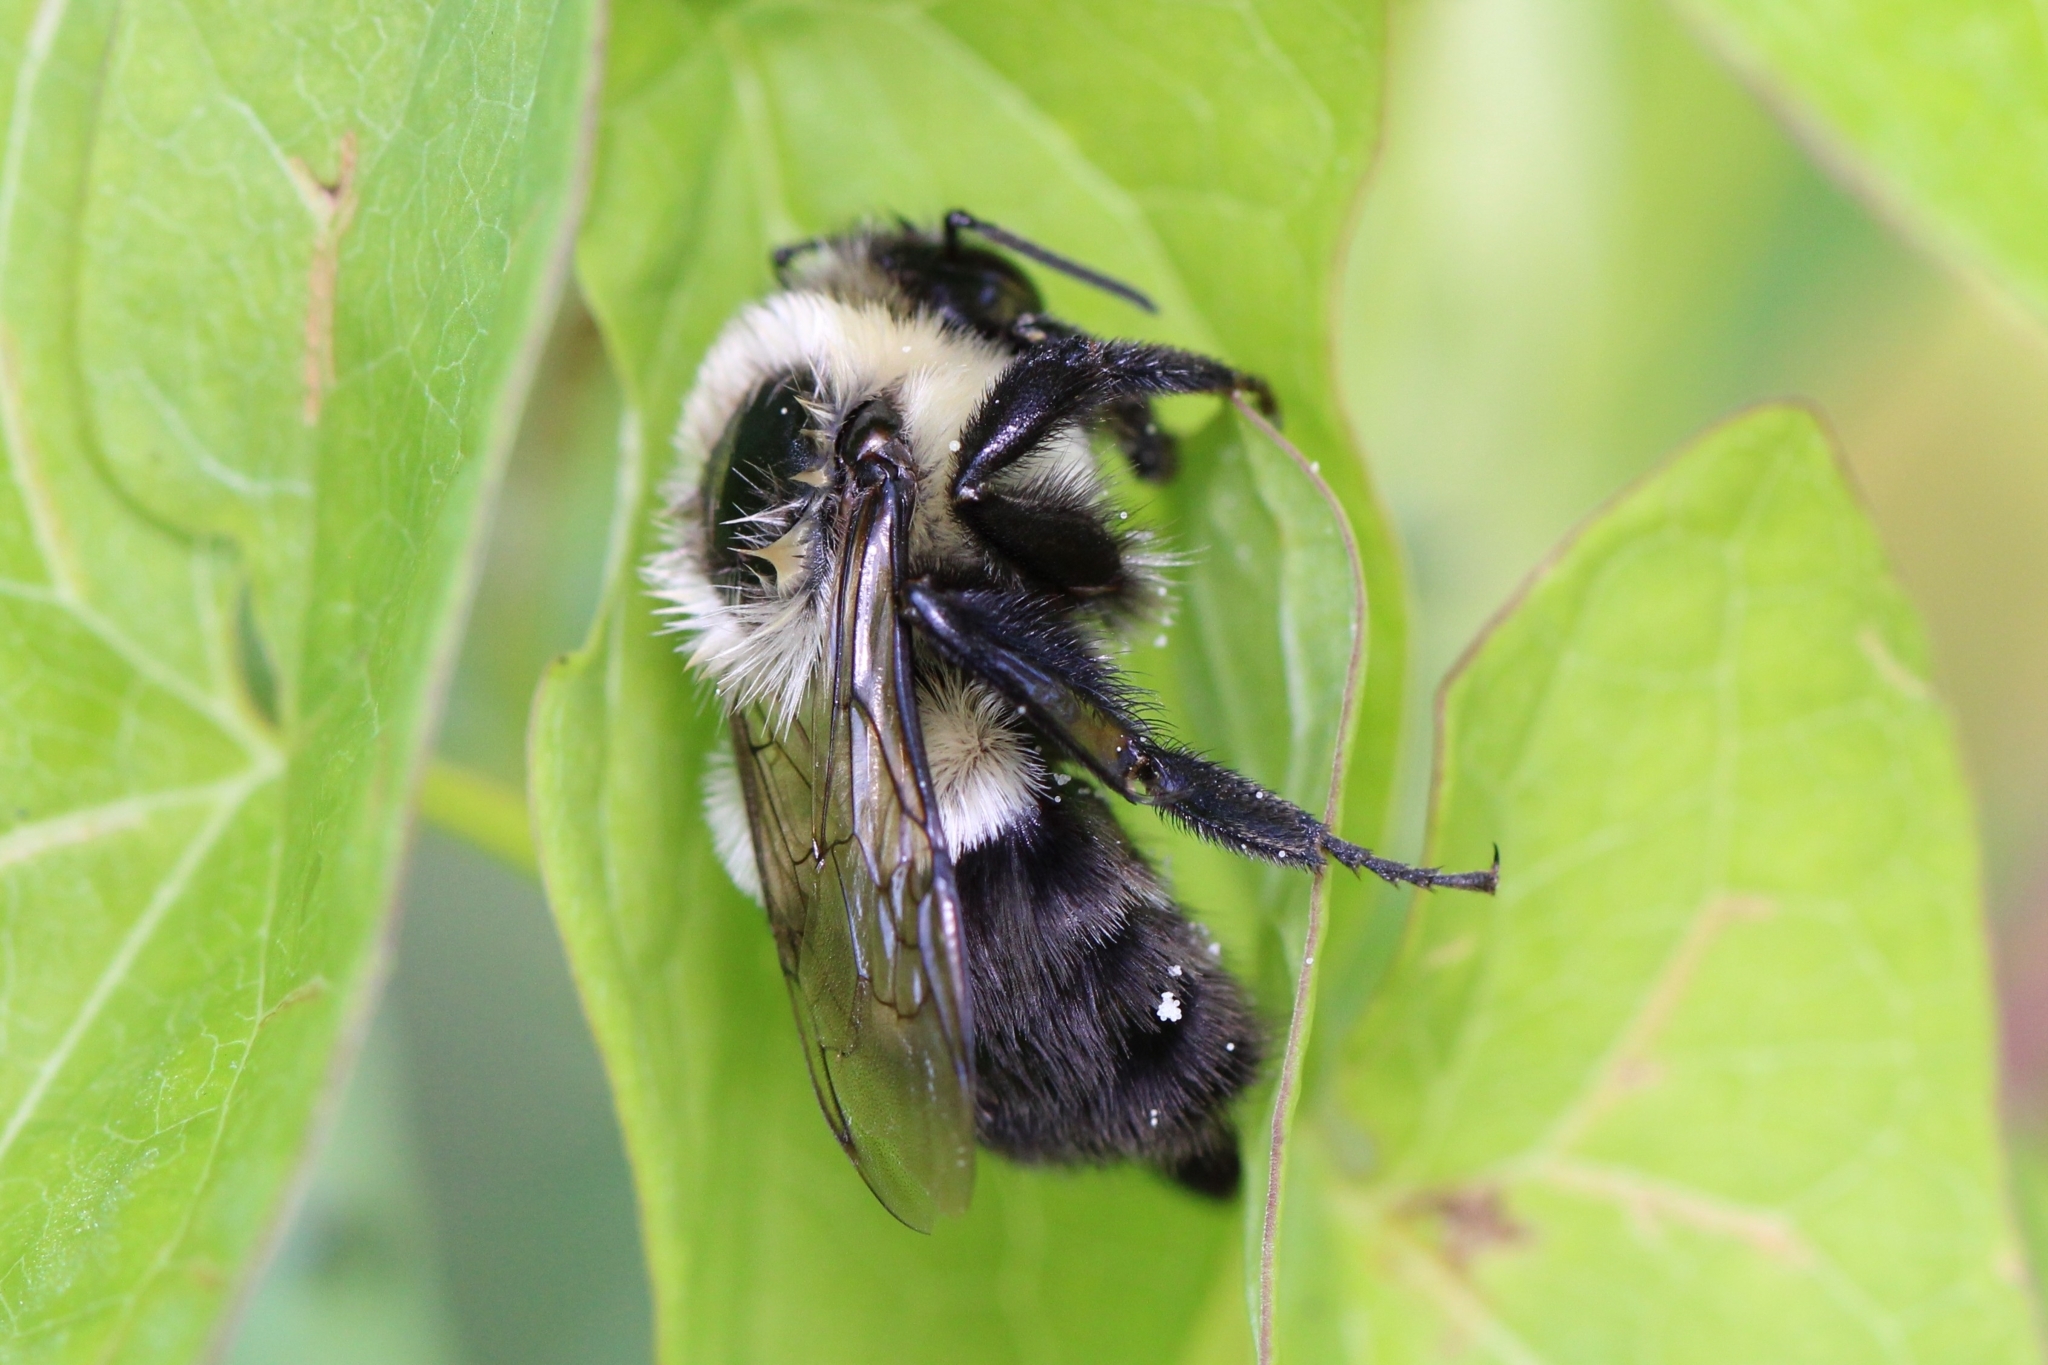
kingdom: Animalia
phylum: Arthropoda
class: Insecta
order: Hymenoptera
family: Apidae
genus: Bombus
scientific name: Bombus impatiens
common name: Common eastern bumble bee
